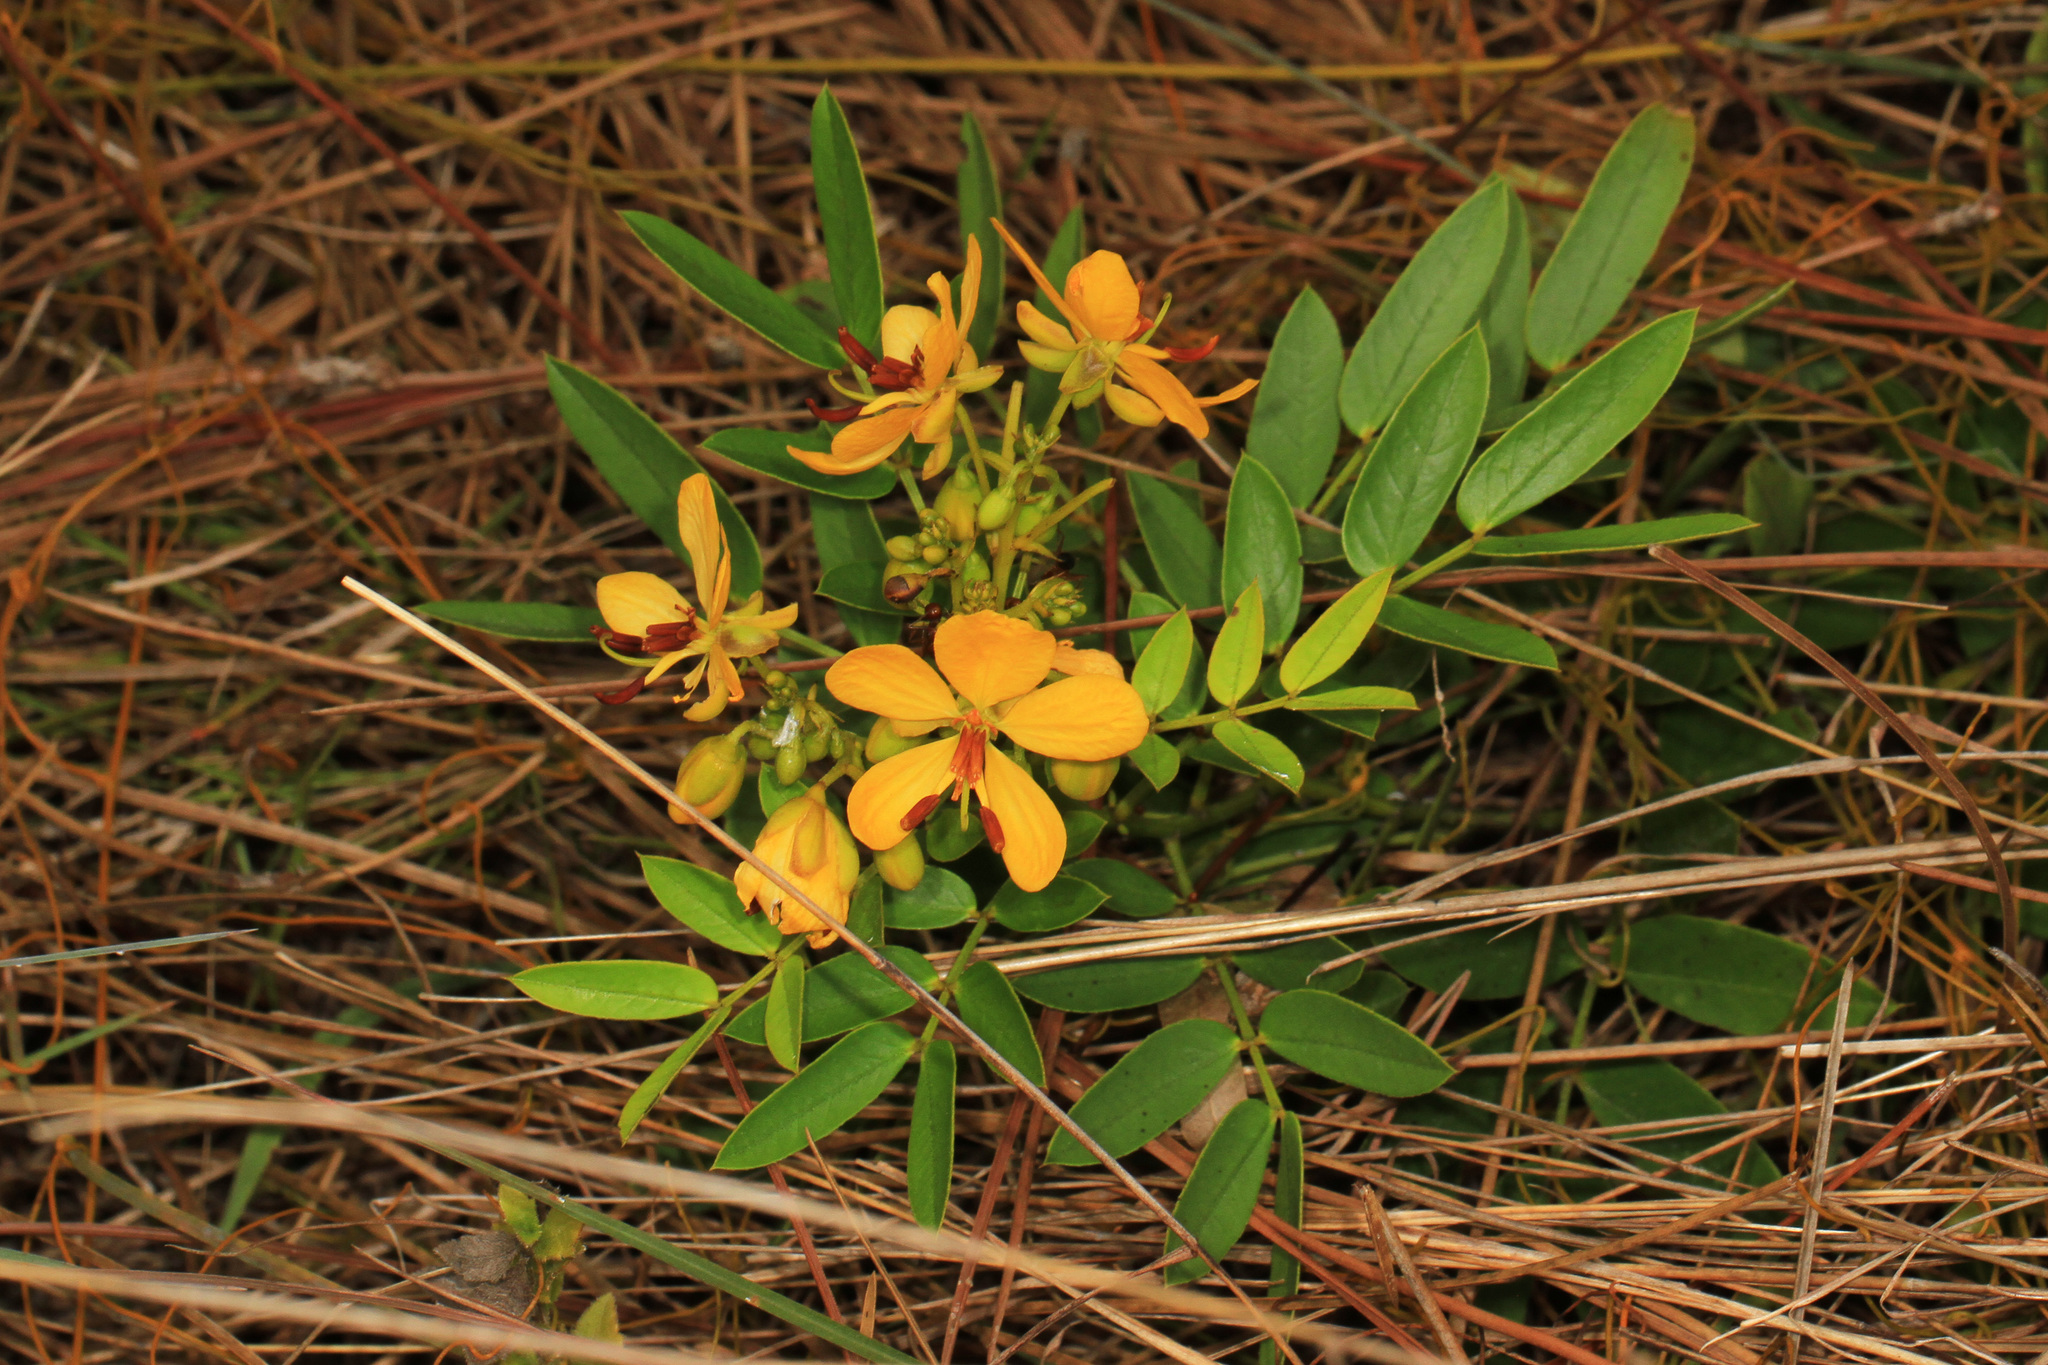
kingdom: Plantae
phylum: Tracheophyta
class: Magnoliopsida
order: Fabales
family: Fabaceae
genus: Senna
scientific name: Senna chapmanii
